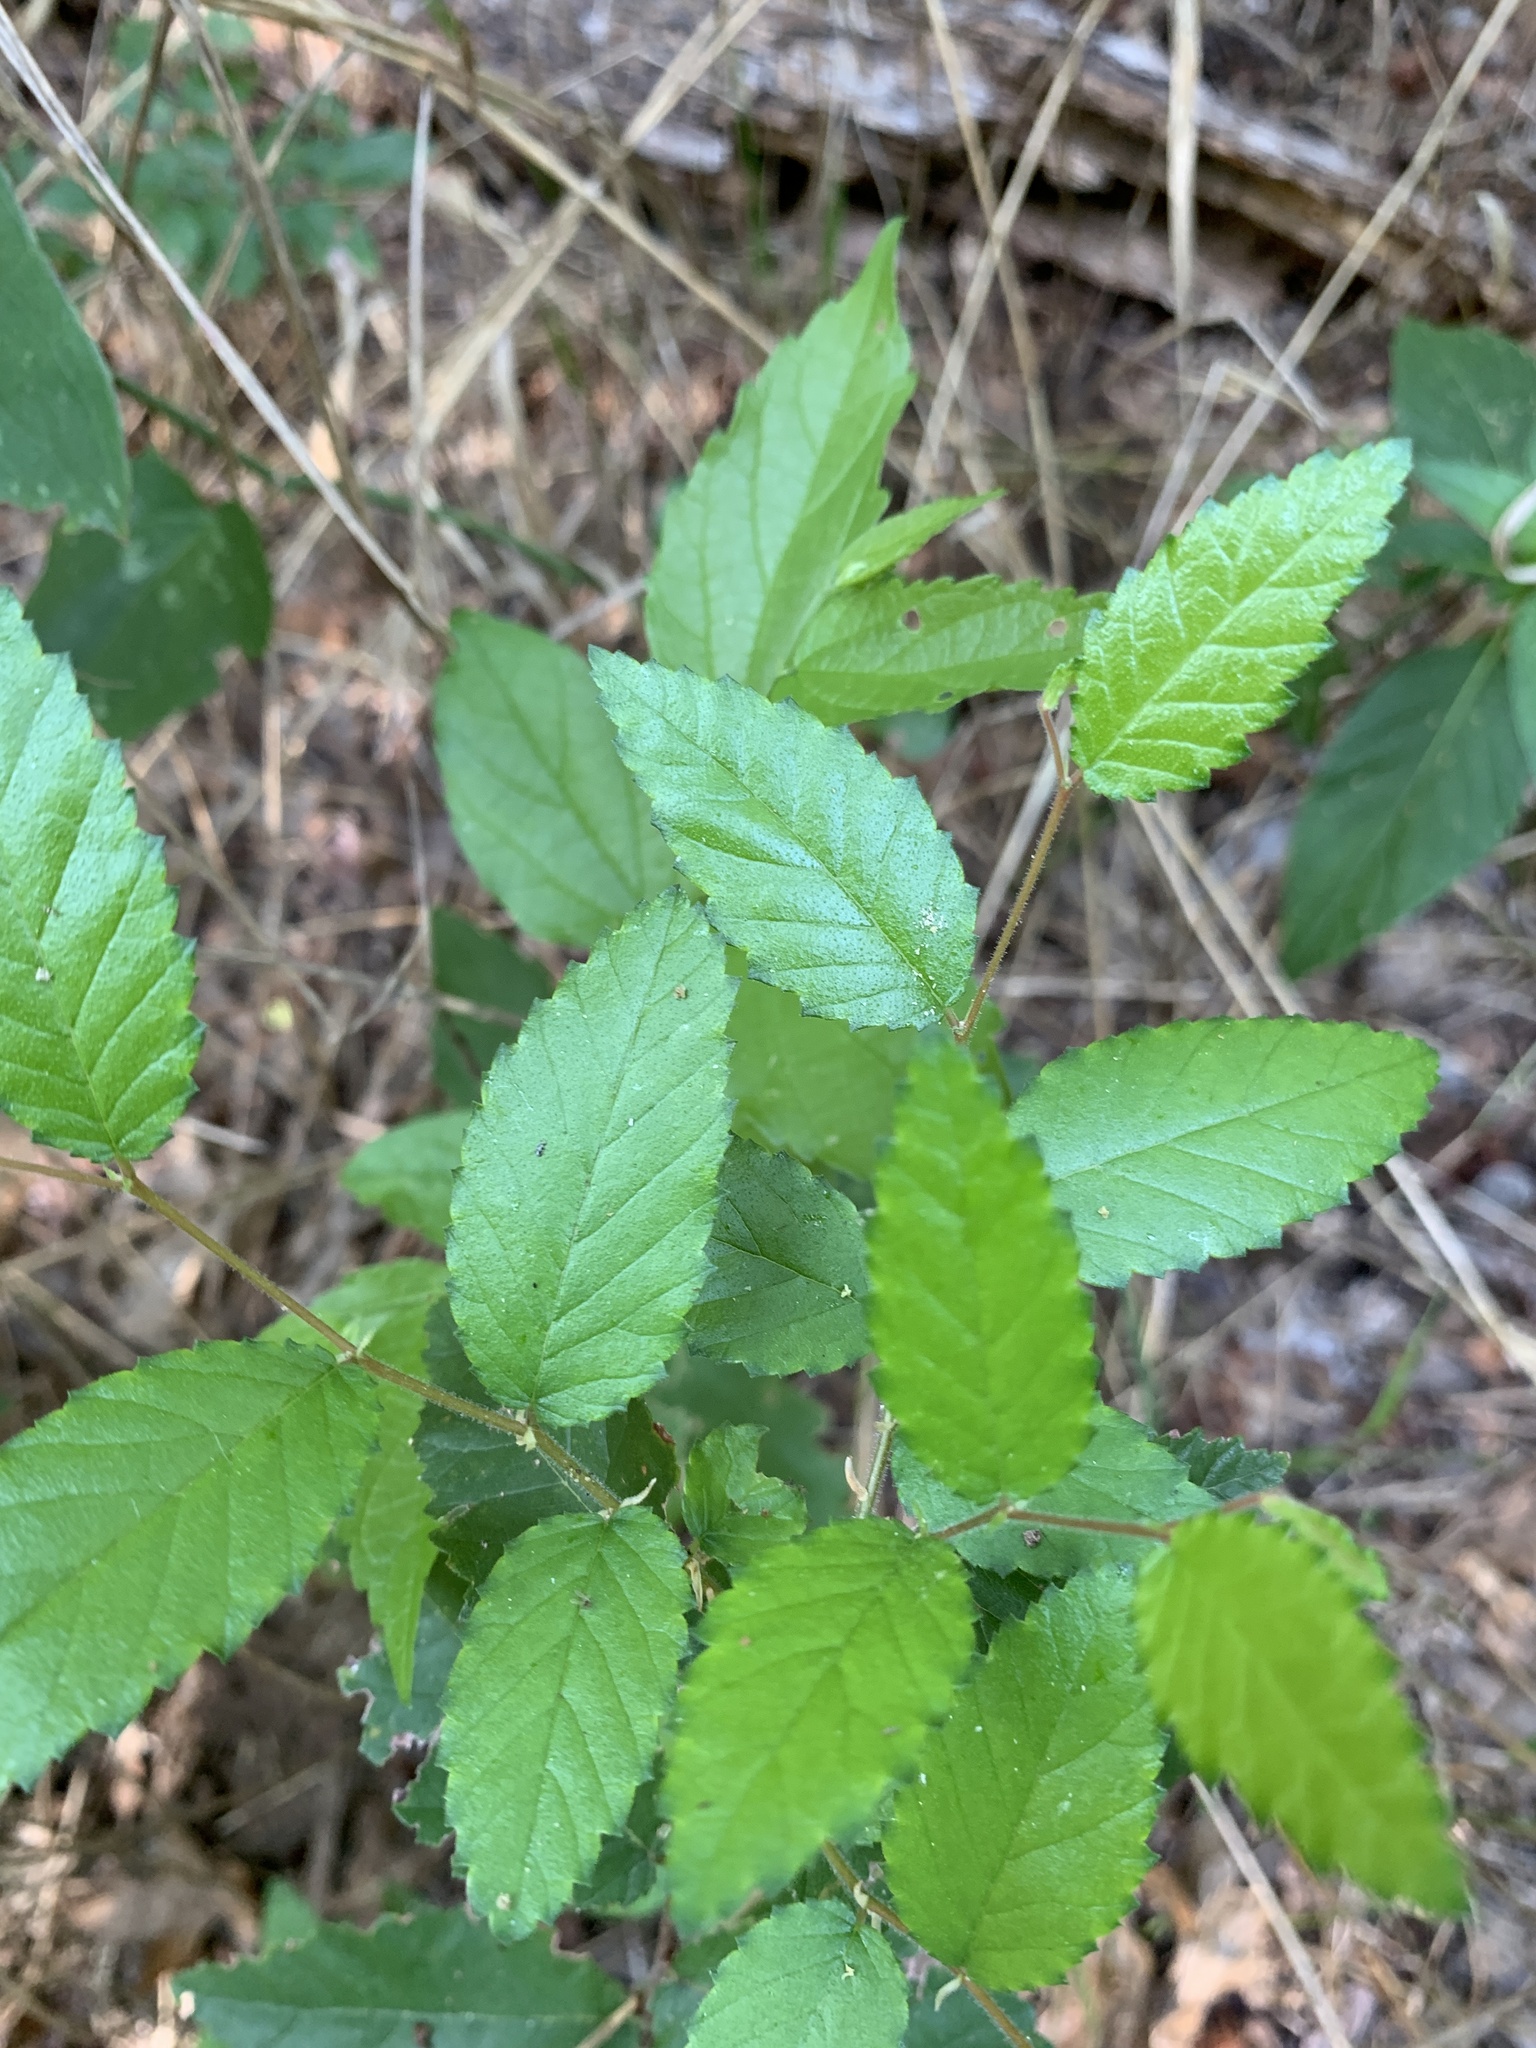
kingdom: Plantae
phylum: Tracheophyta
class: Magnoliopsida
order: Rosales
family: Ulmaceae
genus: Ulmus
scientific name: Ulmus crassifolia
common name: Basket elm
